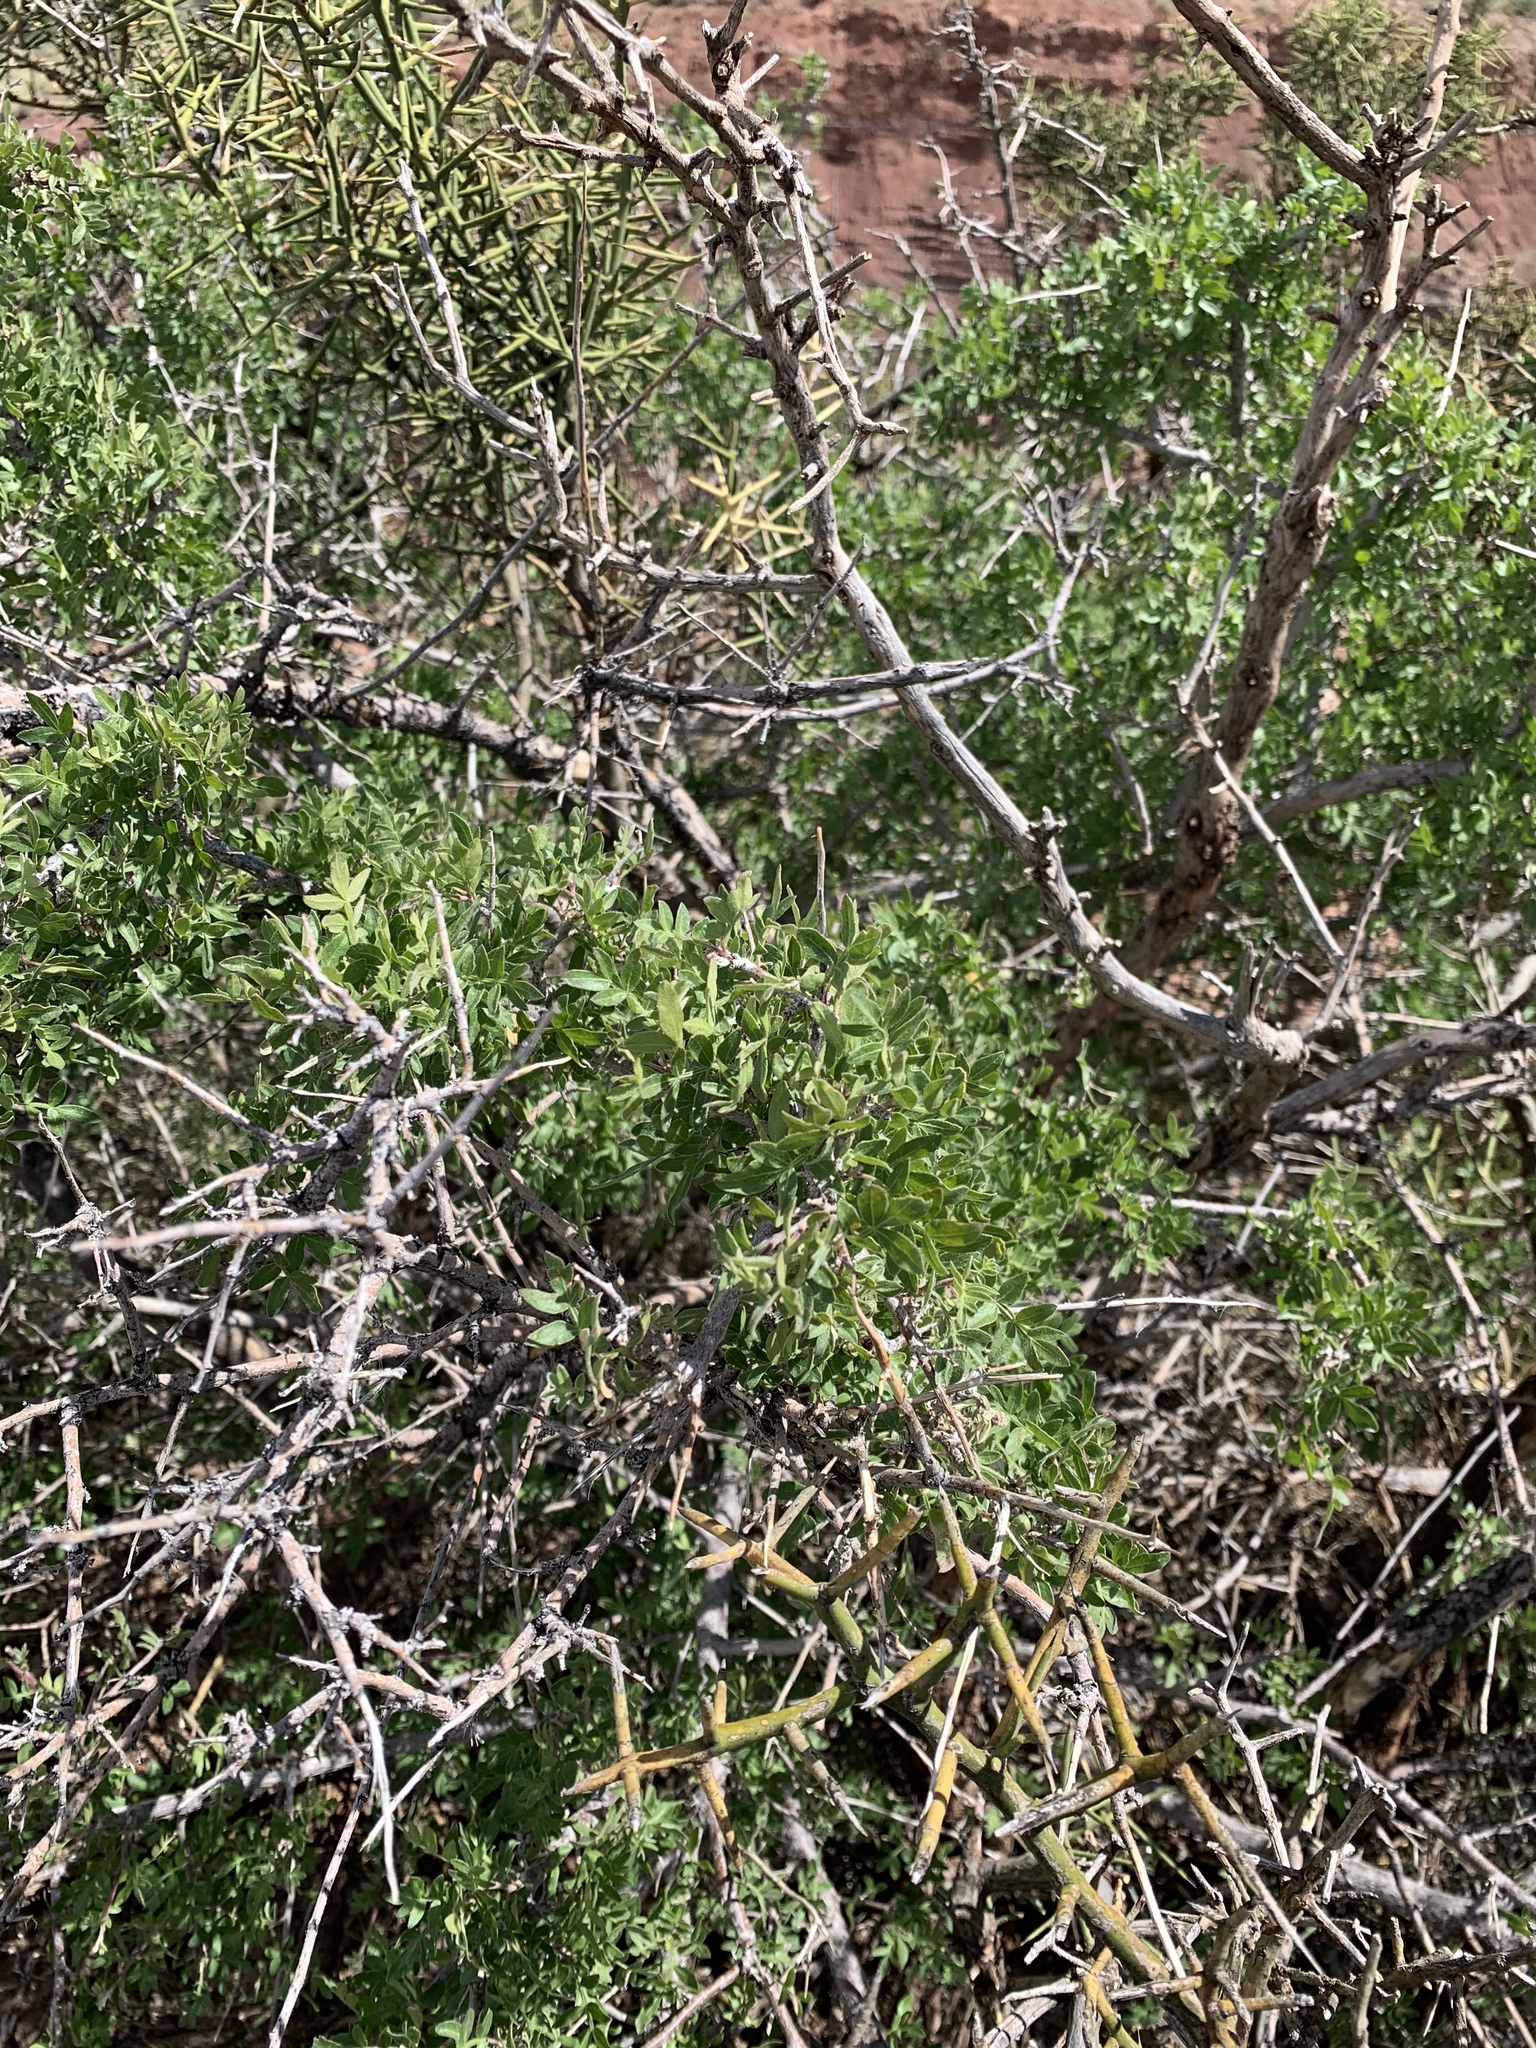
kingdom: Plantae
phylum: Tracheophyta
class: Magnoliopsida
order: Sapindales
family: Anacardiaceae
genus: Rhus
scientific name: Rhus microphylla
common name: Desert sumac
